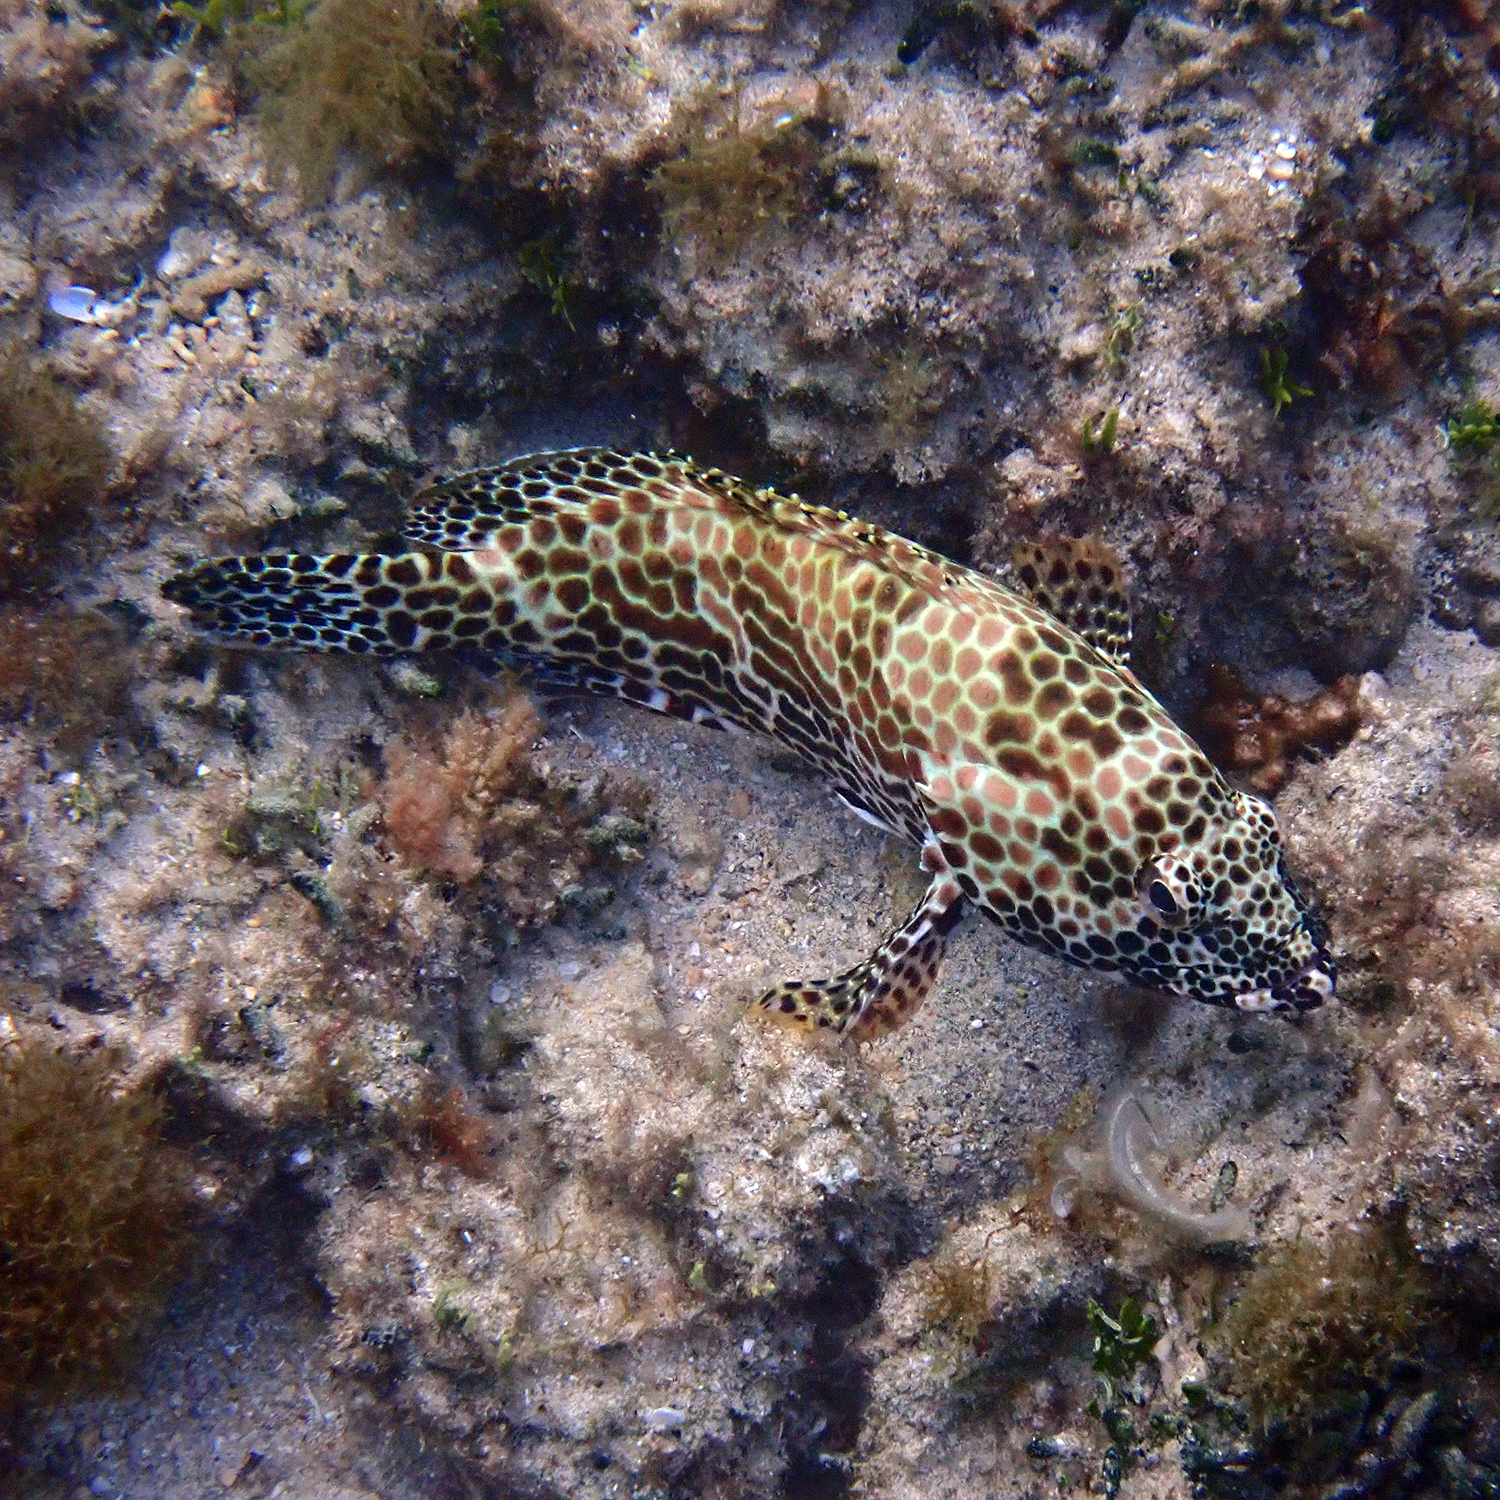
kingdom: Animalia
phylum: Chordata
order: Perciformes
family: Serranidae
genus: Epinephelus
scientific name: Epinephelus merra
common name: Honeycomb grouper
